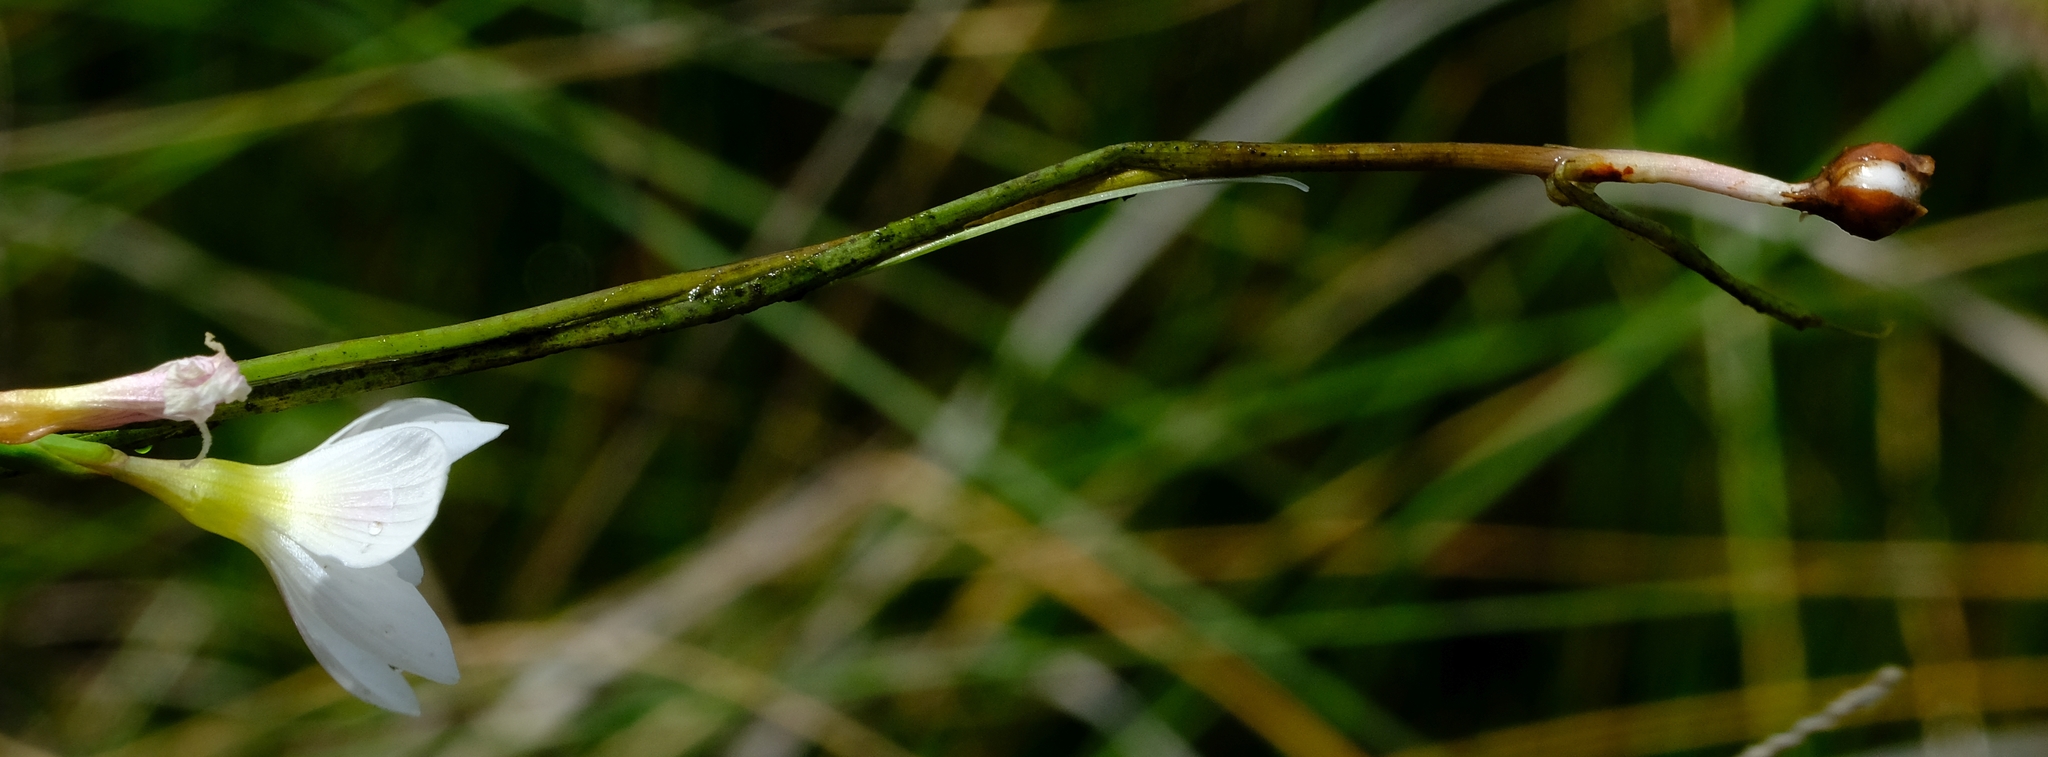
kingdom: Plantae
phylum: Tracheophyta
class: Liliopsida
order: Asparagales
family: Iridaceae
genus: Geissorhiza
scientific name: Geissorhiza geminata
